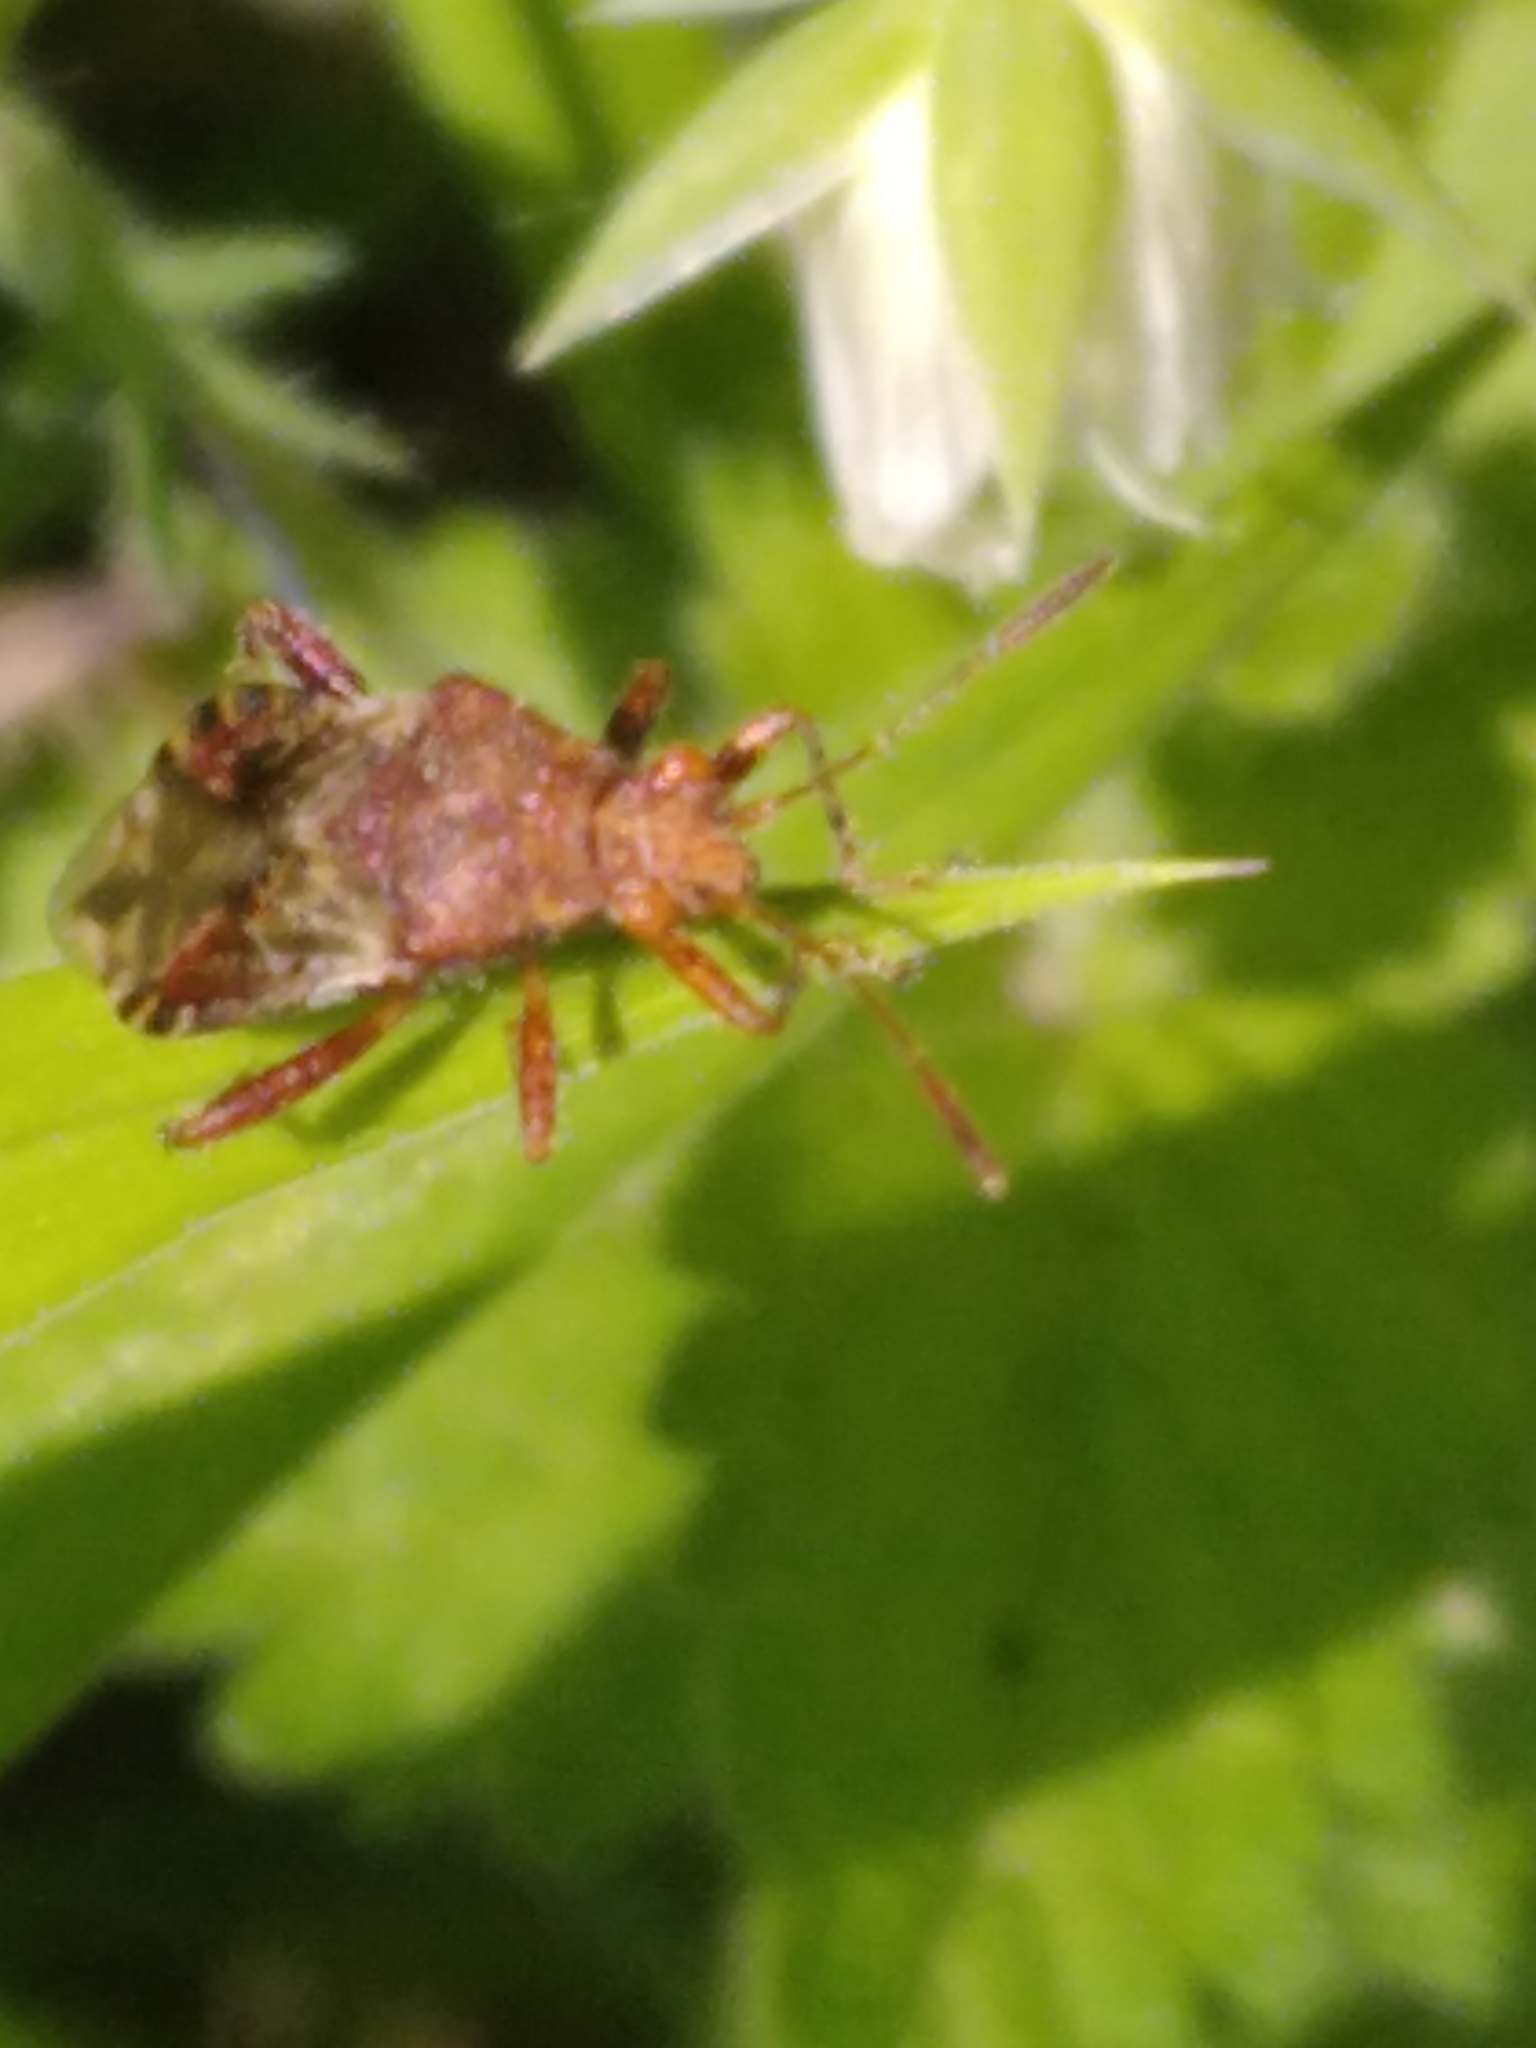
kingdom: Animalia
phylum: Arthropoda
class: Insecta
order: Hemiptera
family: Rhopalidae
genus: Rhopalus
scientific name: Rhopalus subrufus
